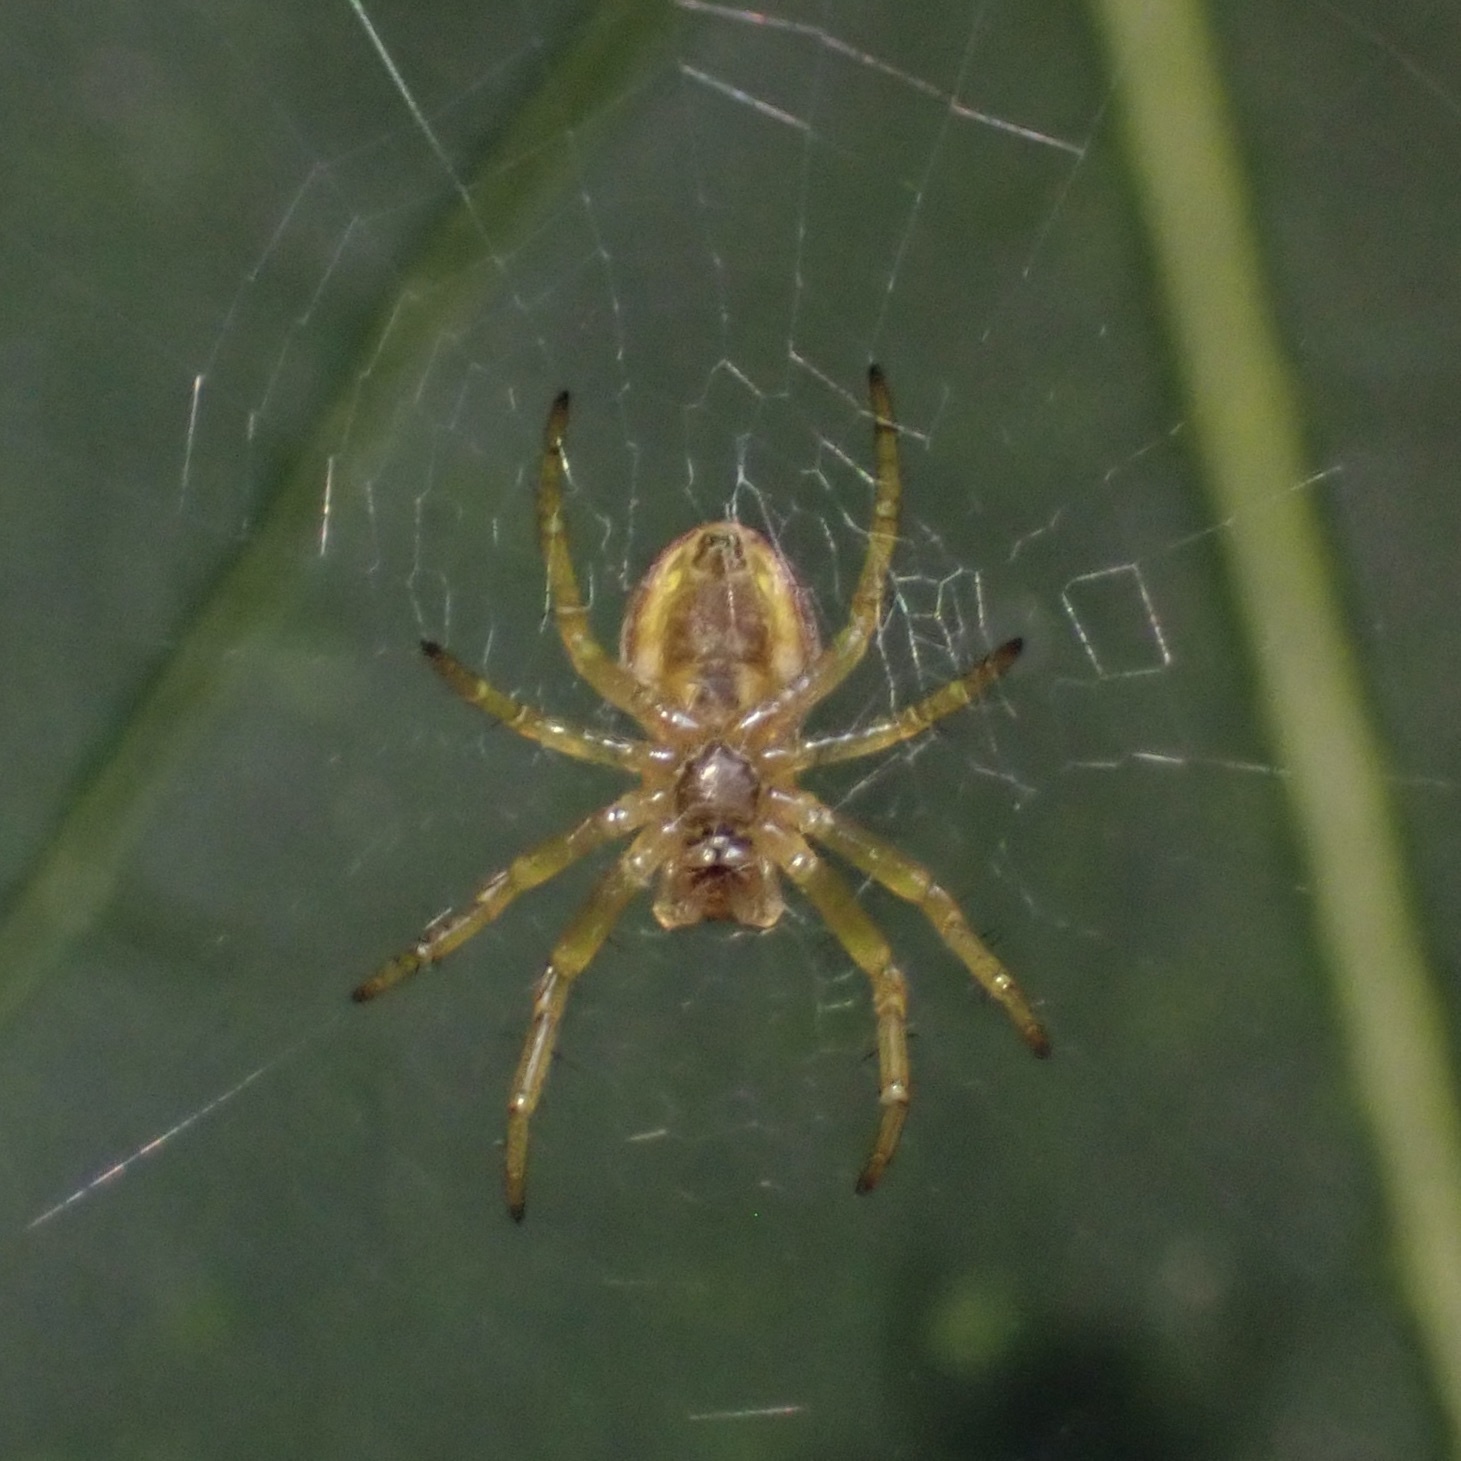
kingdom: Animalia
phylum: Arthropoda
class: Arachnida
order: Araneae
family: Araneidae
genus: Araniella
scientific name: Araniella displicata
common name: Sixspotted orb weaver
